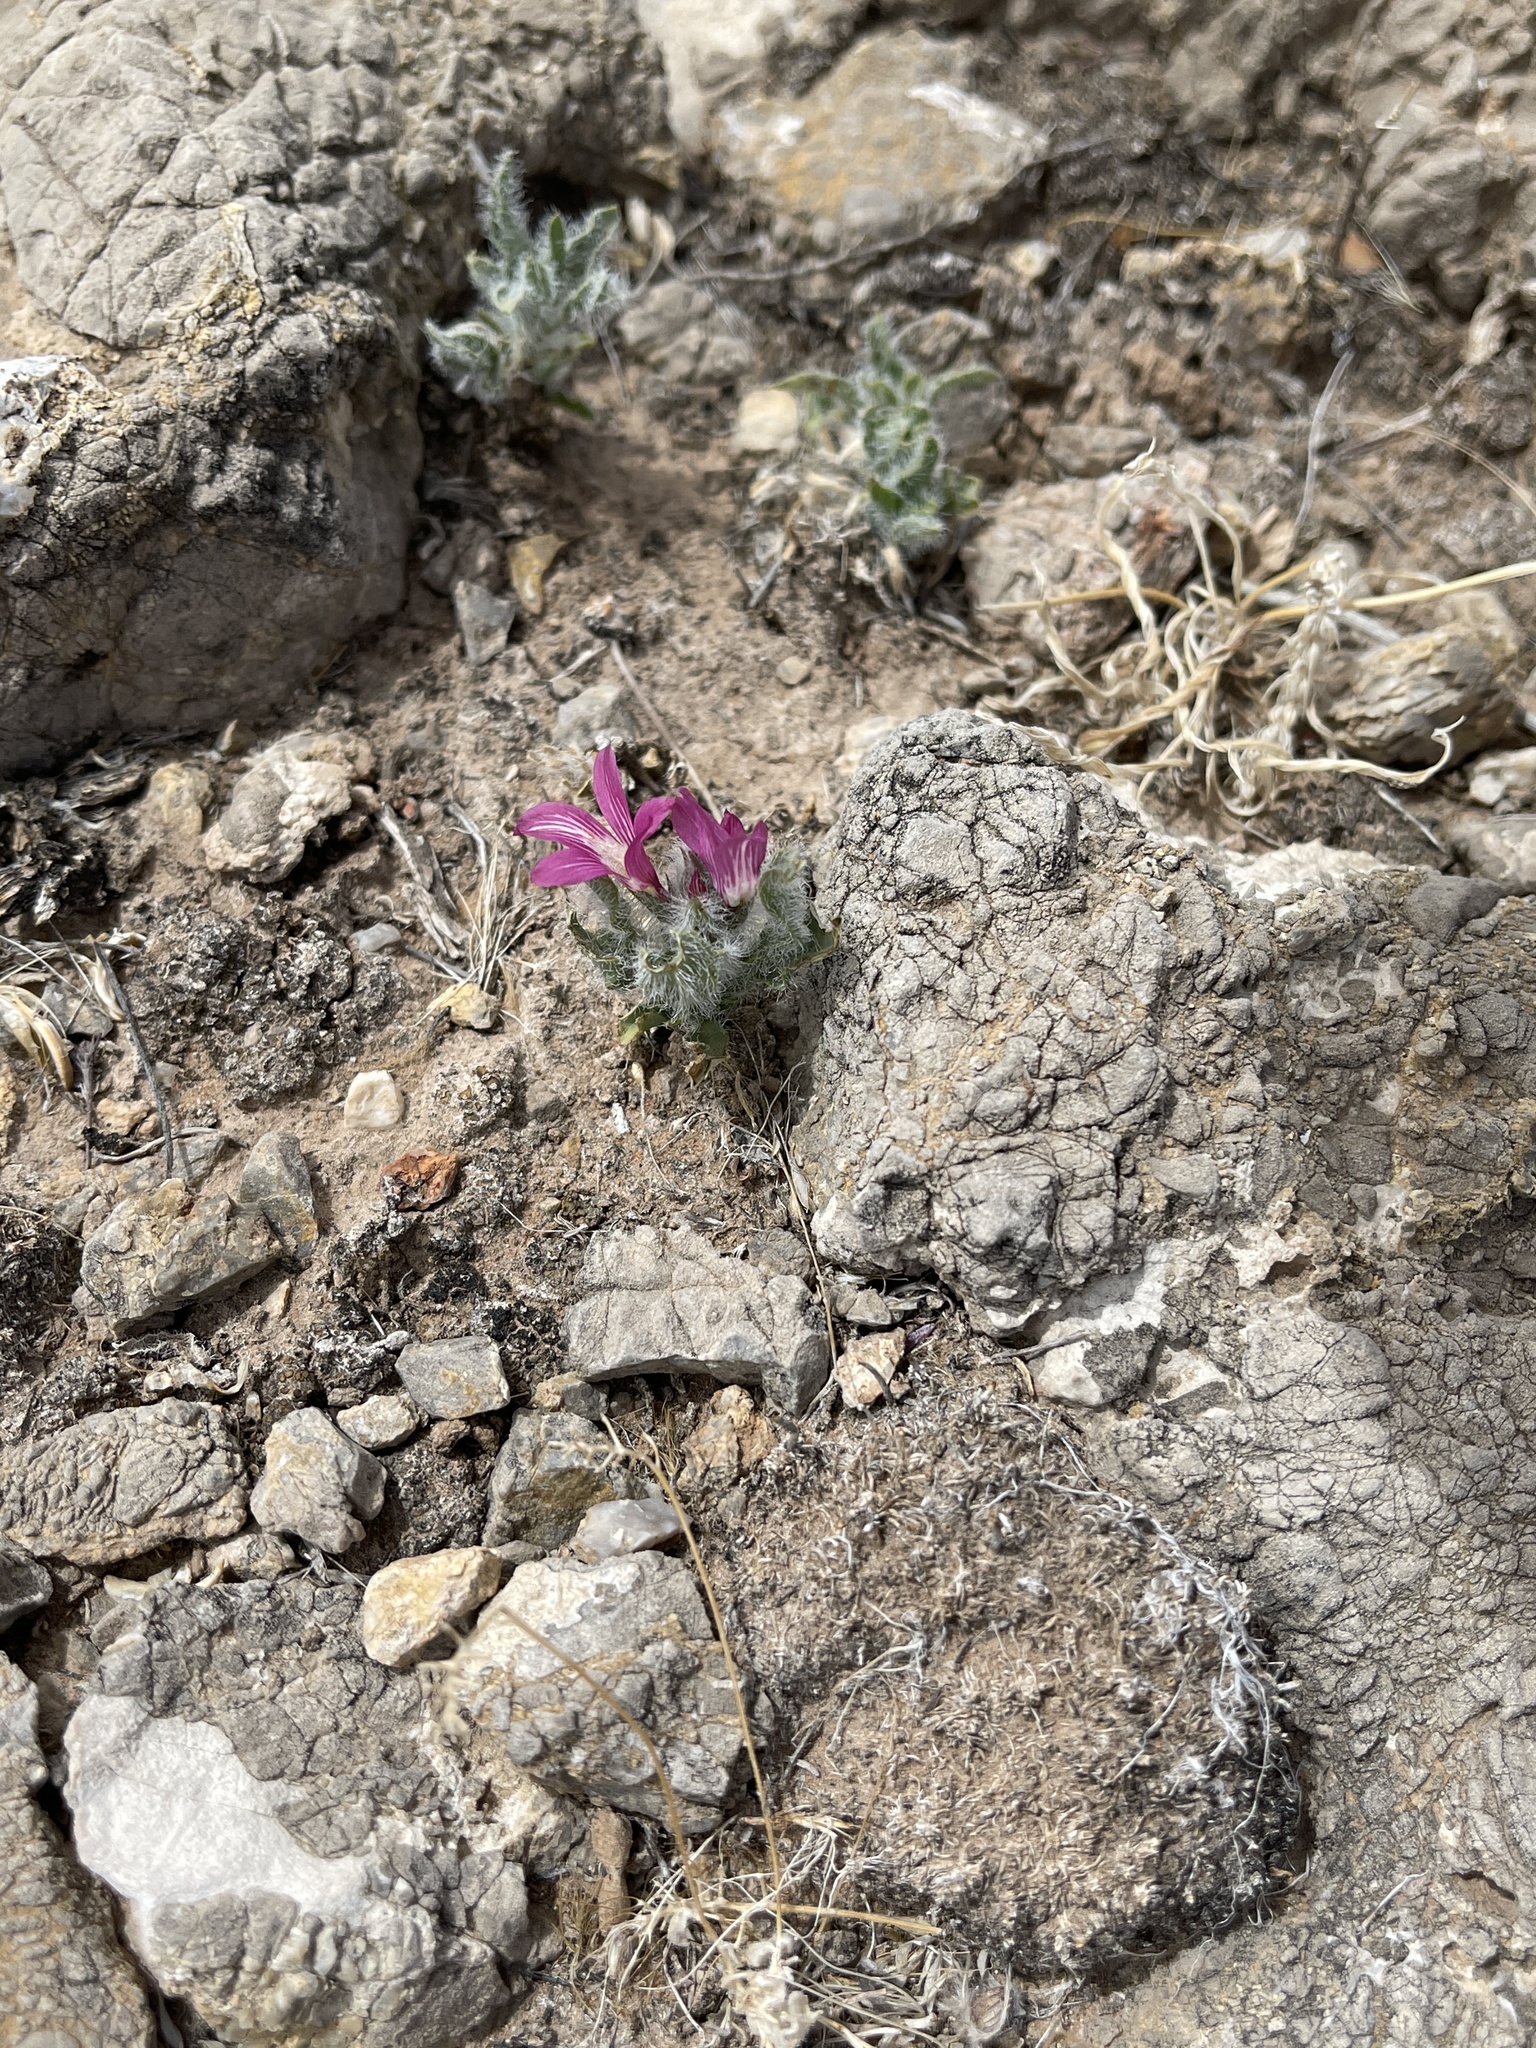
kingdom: Plantae
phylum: Tracheophyta
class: Magnoliopsida
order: Lamiales
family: Acanthaceae
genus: Stenandrium
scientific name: Stenandrium barbatum
